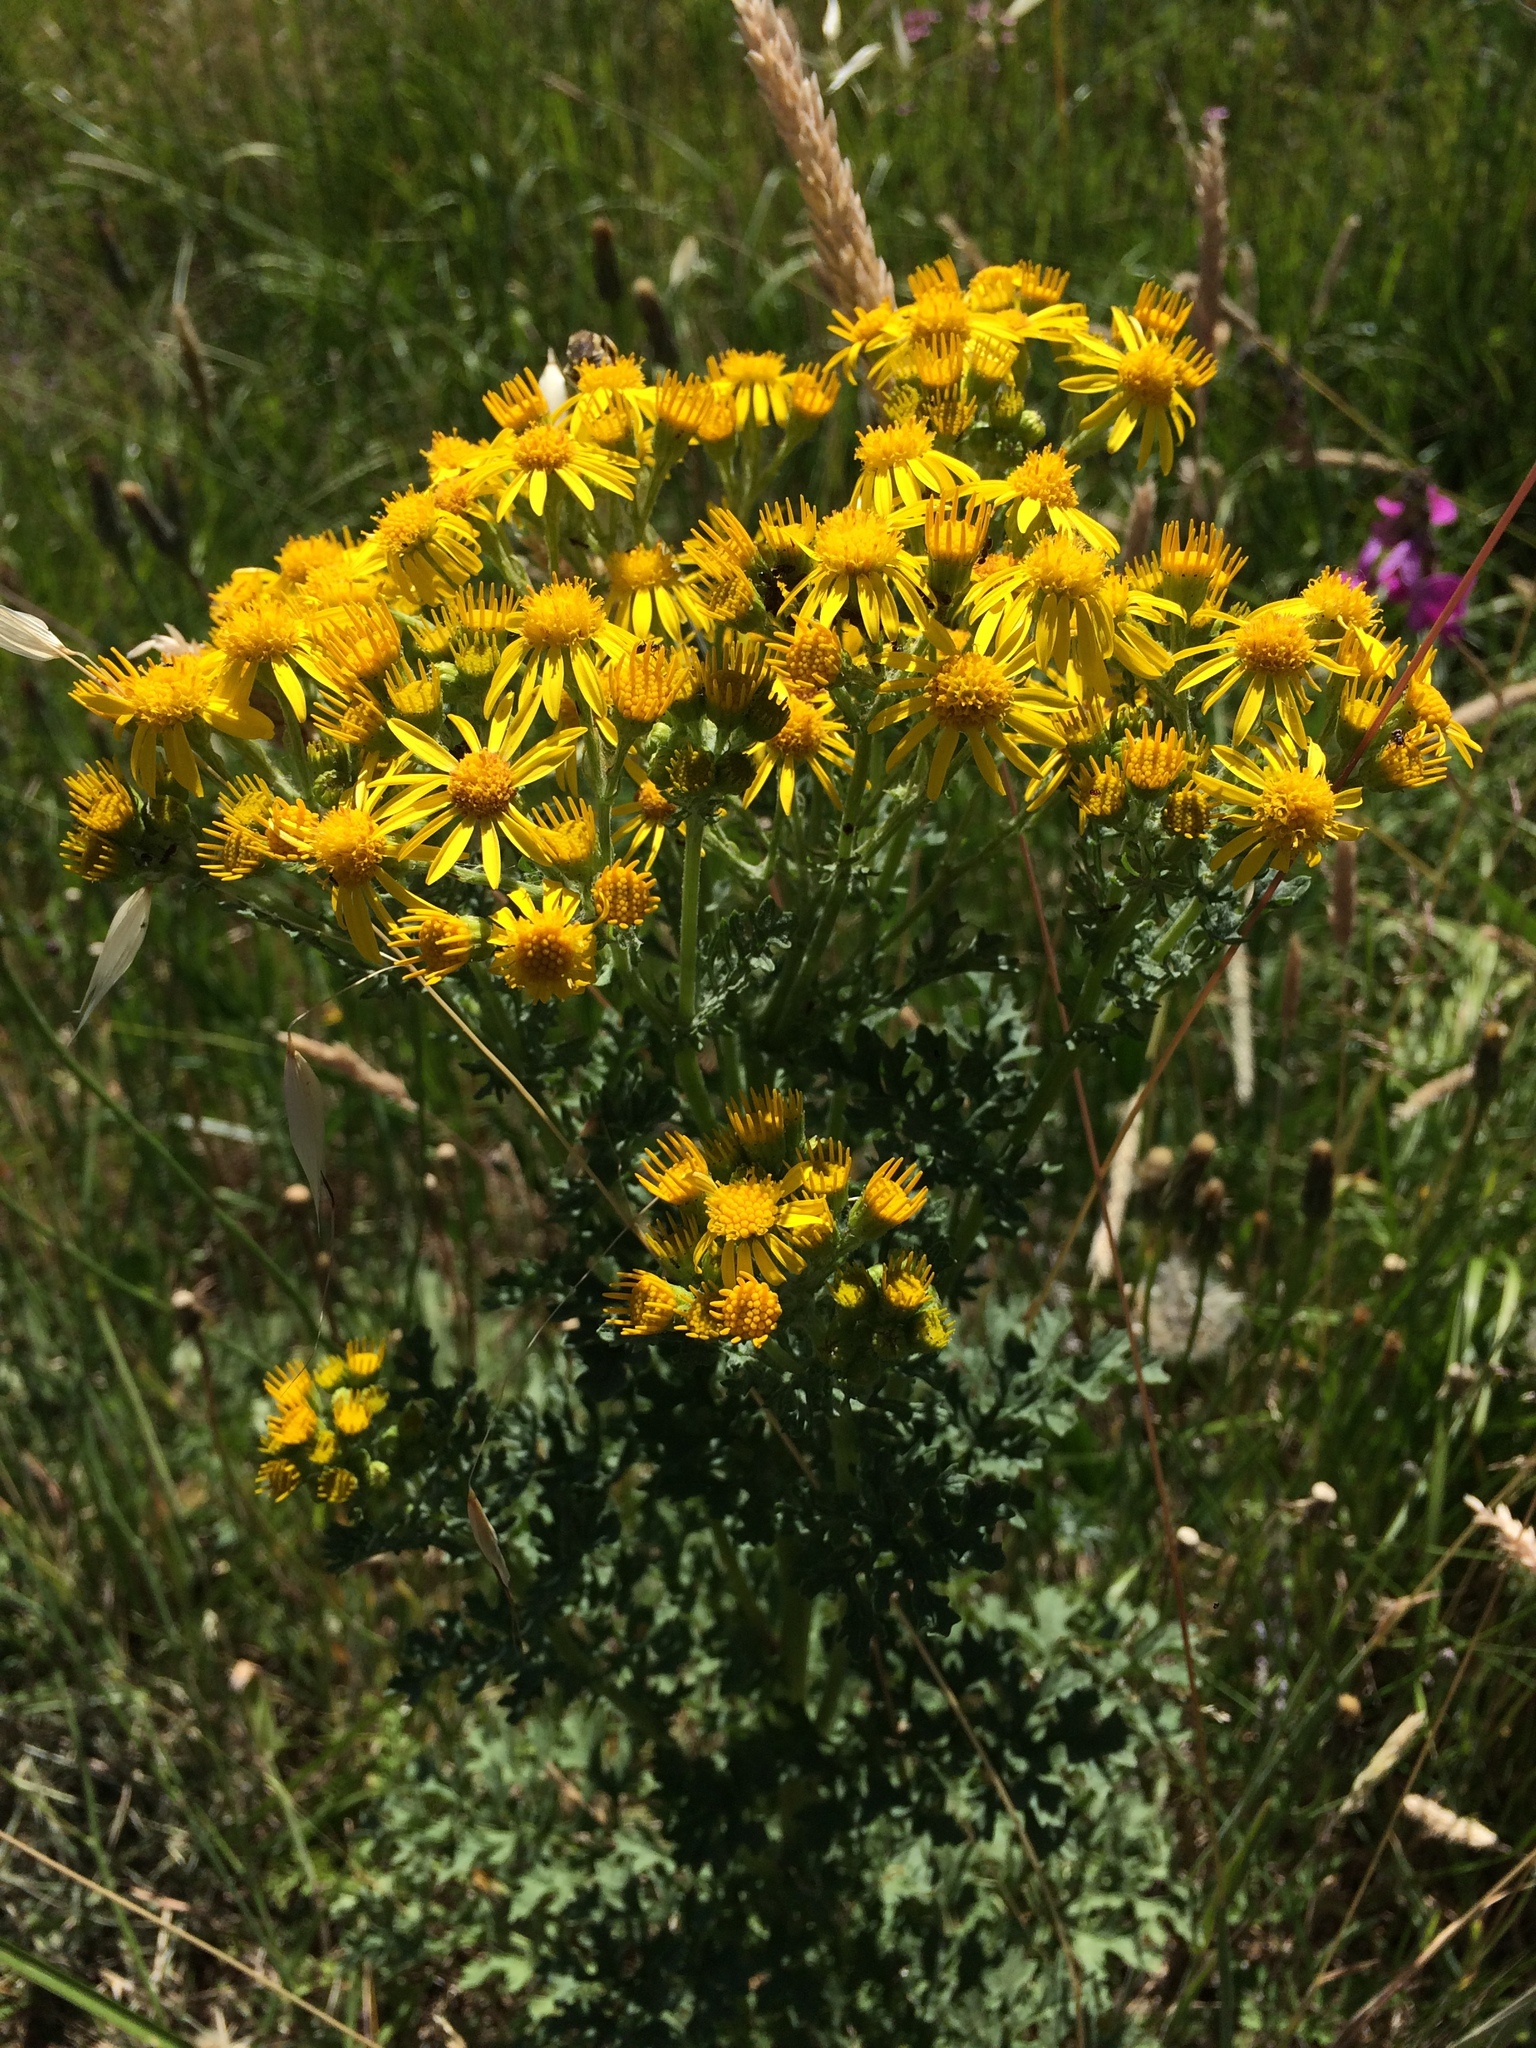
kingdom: Plantae
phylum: Tracheophyta
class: Magnoliopsida
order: Asterales
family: Asteraceae
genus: Jacobaea
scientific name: Jacobaea vulgaris
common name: Stinking willie
